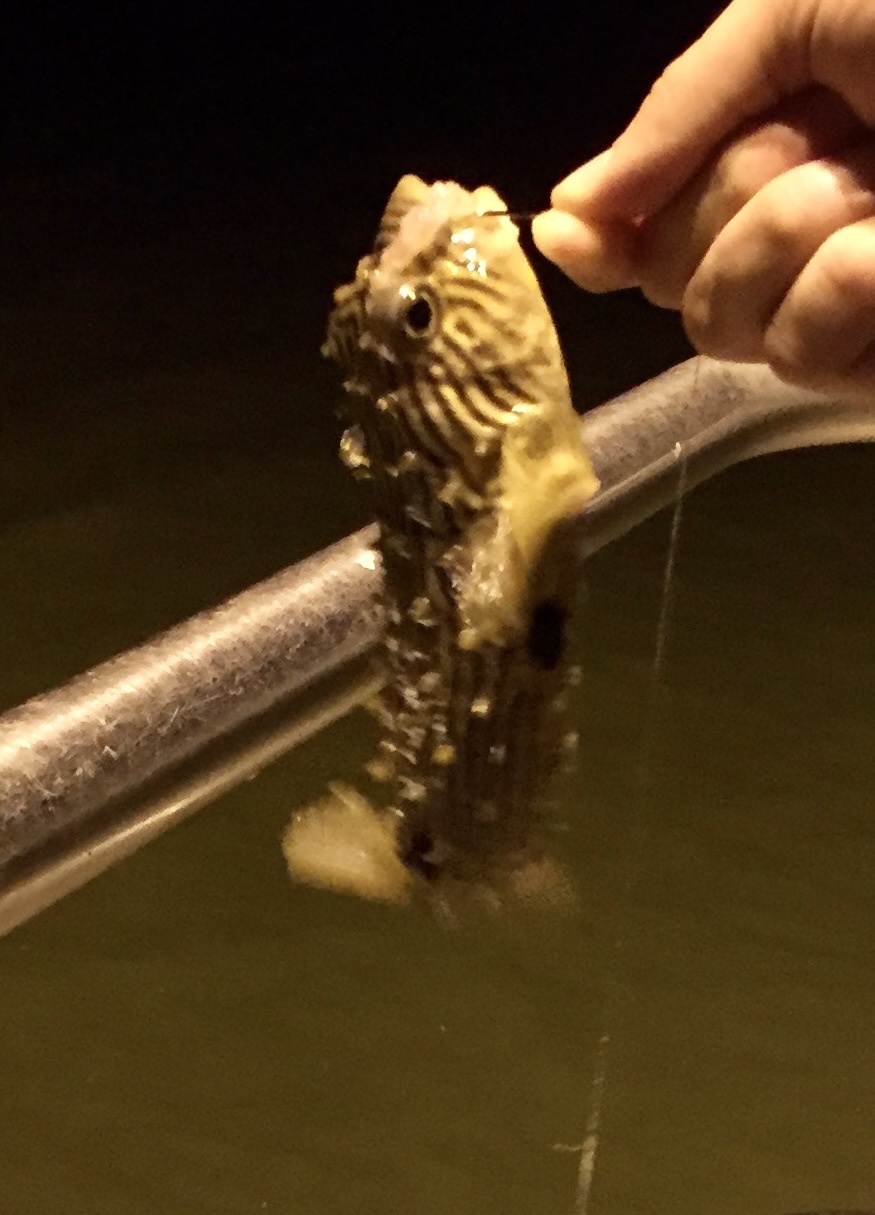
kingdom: Animalia
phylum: Chordata
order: Tetraodontiformes
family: Diodontidae
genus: Chilomycterus
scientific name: Chilomycterus schoepfii
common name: Striped burrfish
